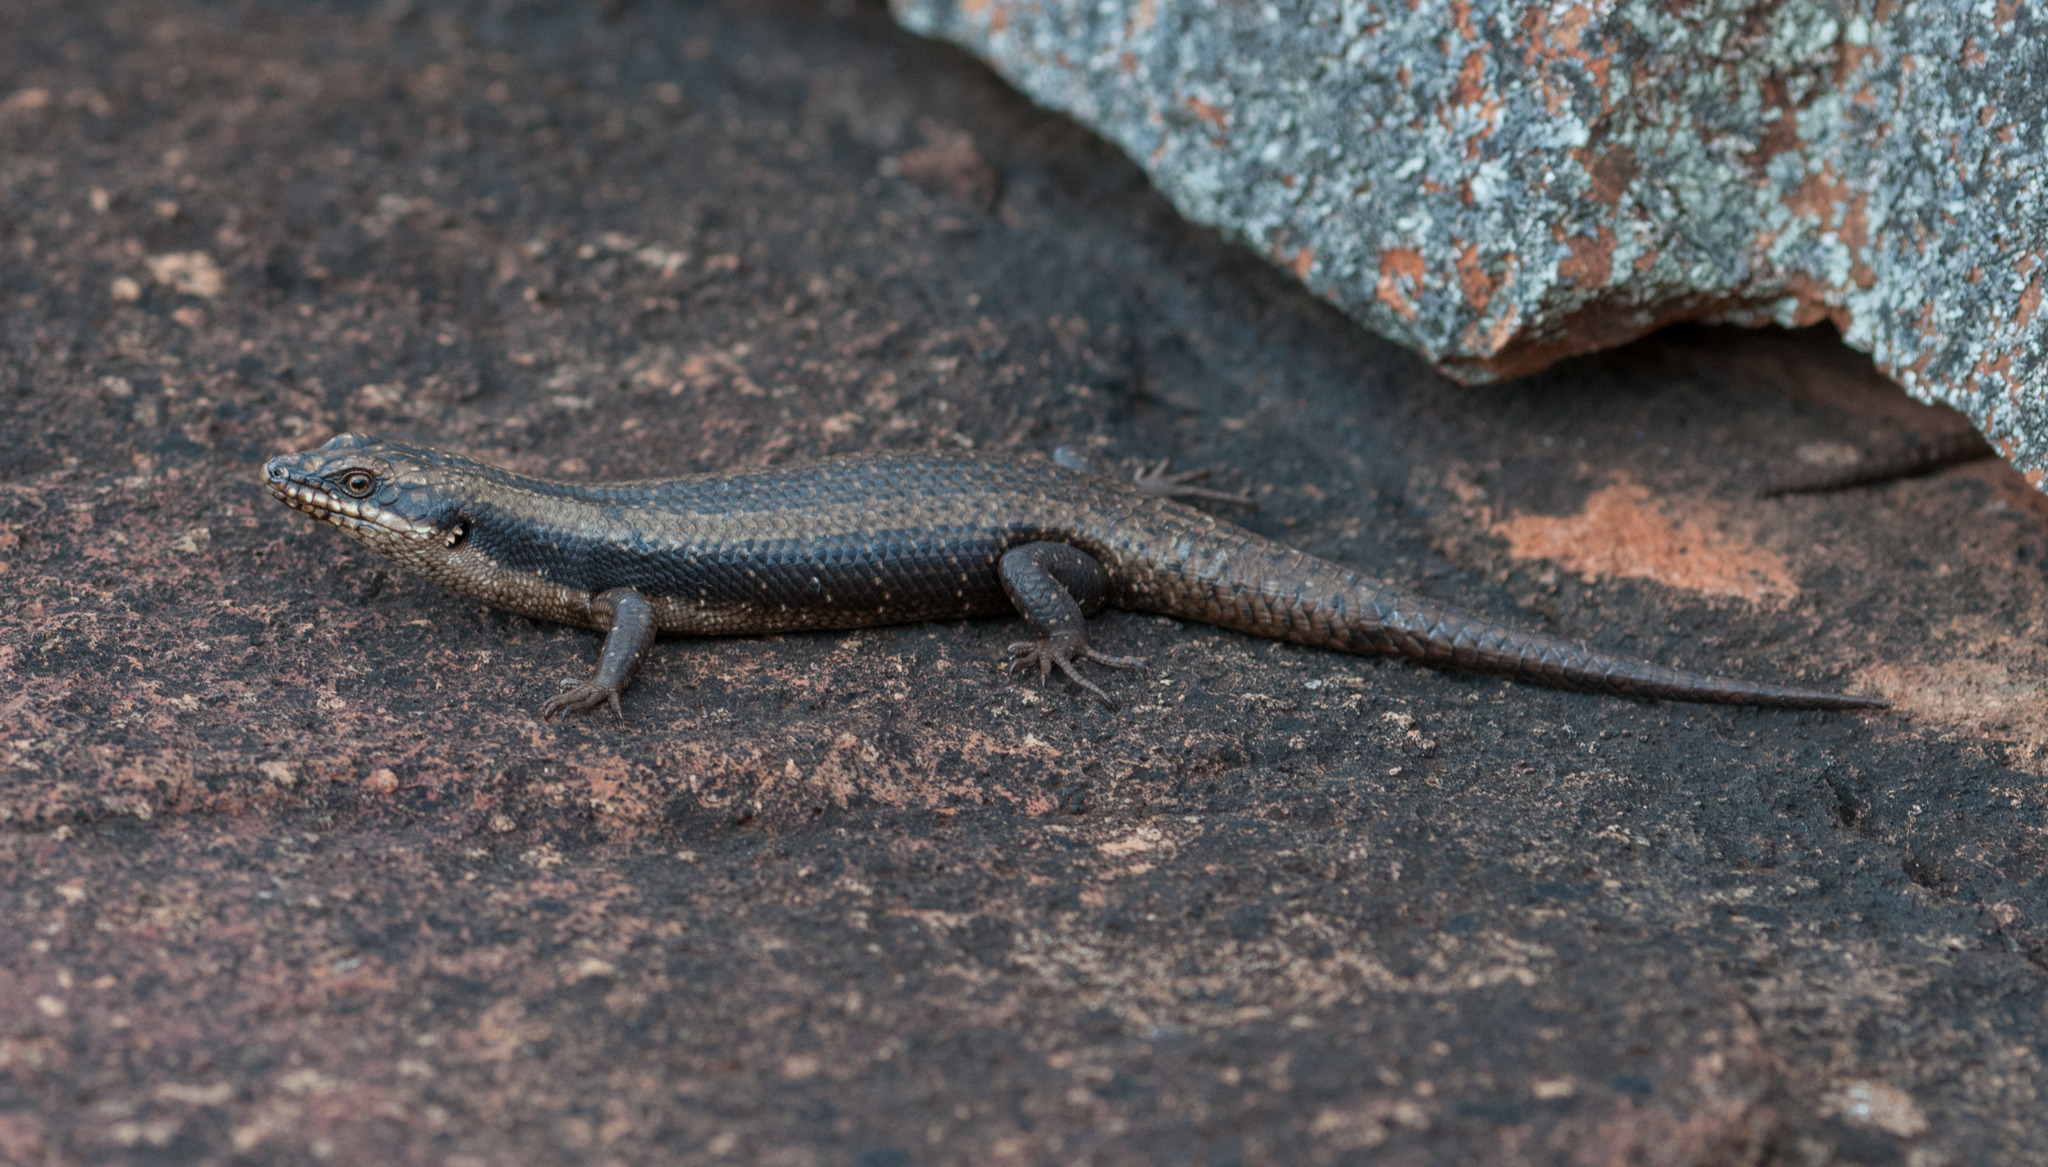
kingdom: Animalia
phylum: Chordata
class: Squamata
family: Scincidae
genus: Egernia
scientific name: Egernia striolata
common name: Tree skink
